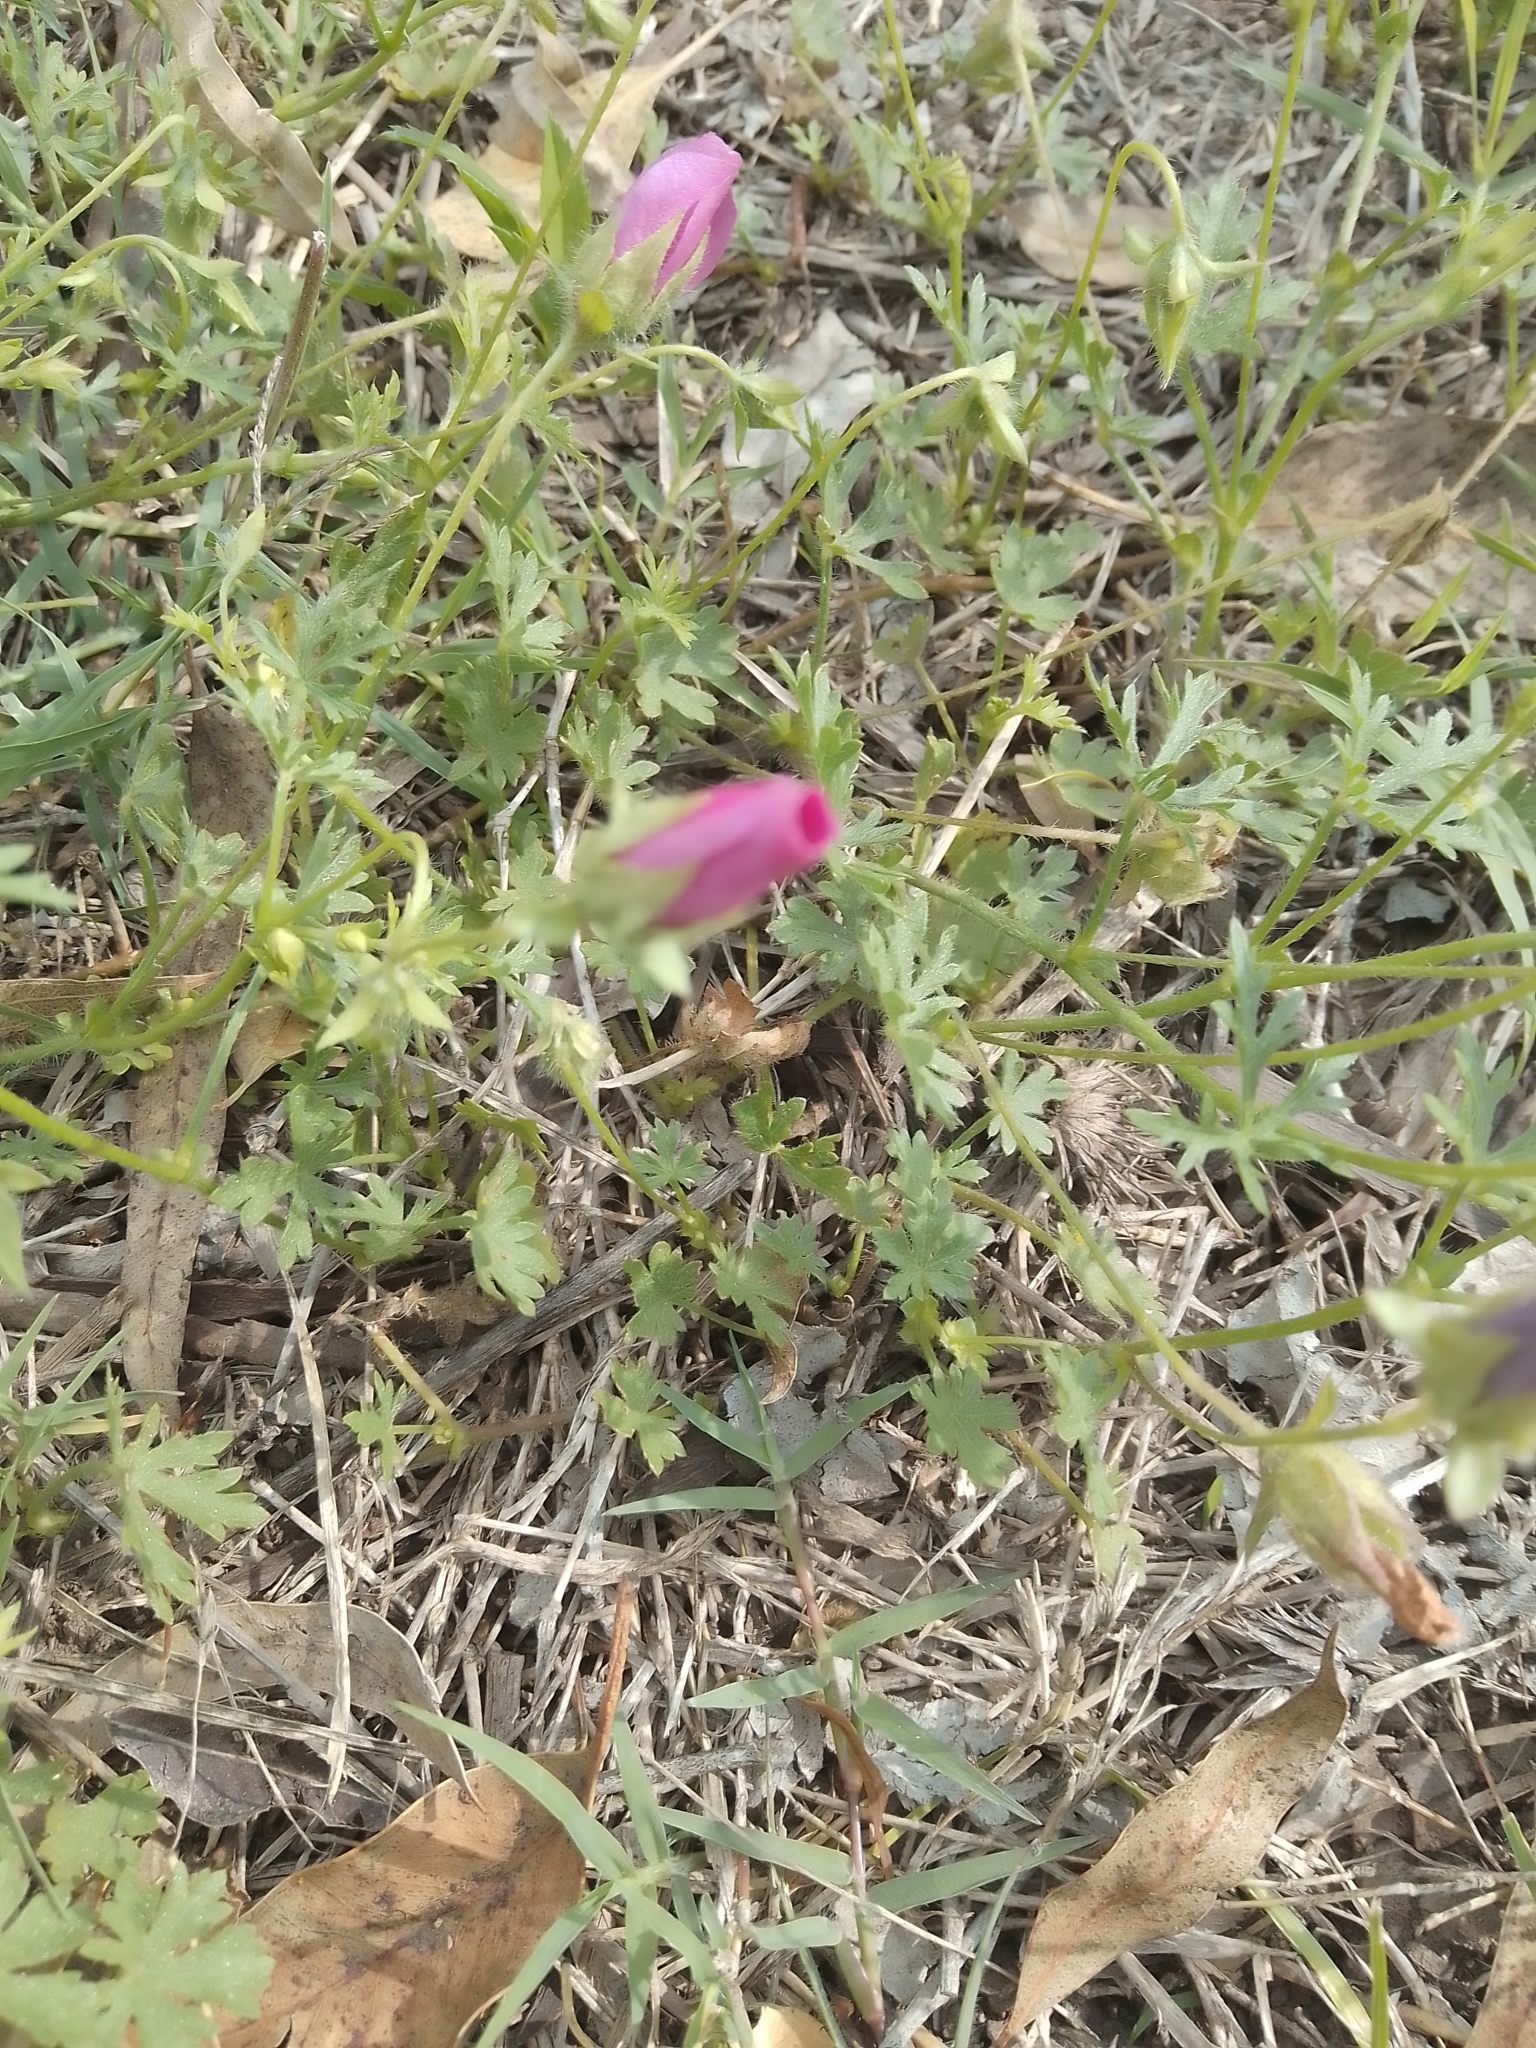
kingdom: Plantae
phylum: Tracheophyta
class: Magnoliopsida
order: Malvales
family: Malvaceae
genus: Modiolastrum
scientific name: Modiolastrum gilliesii
